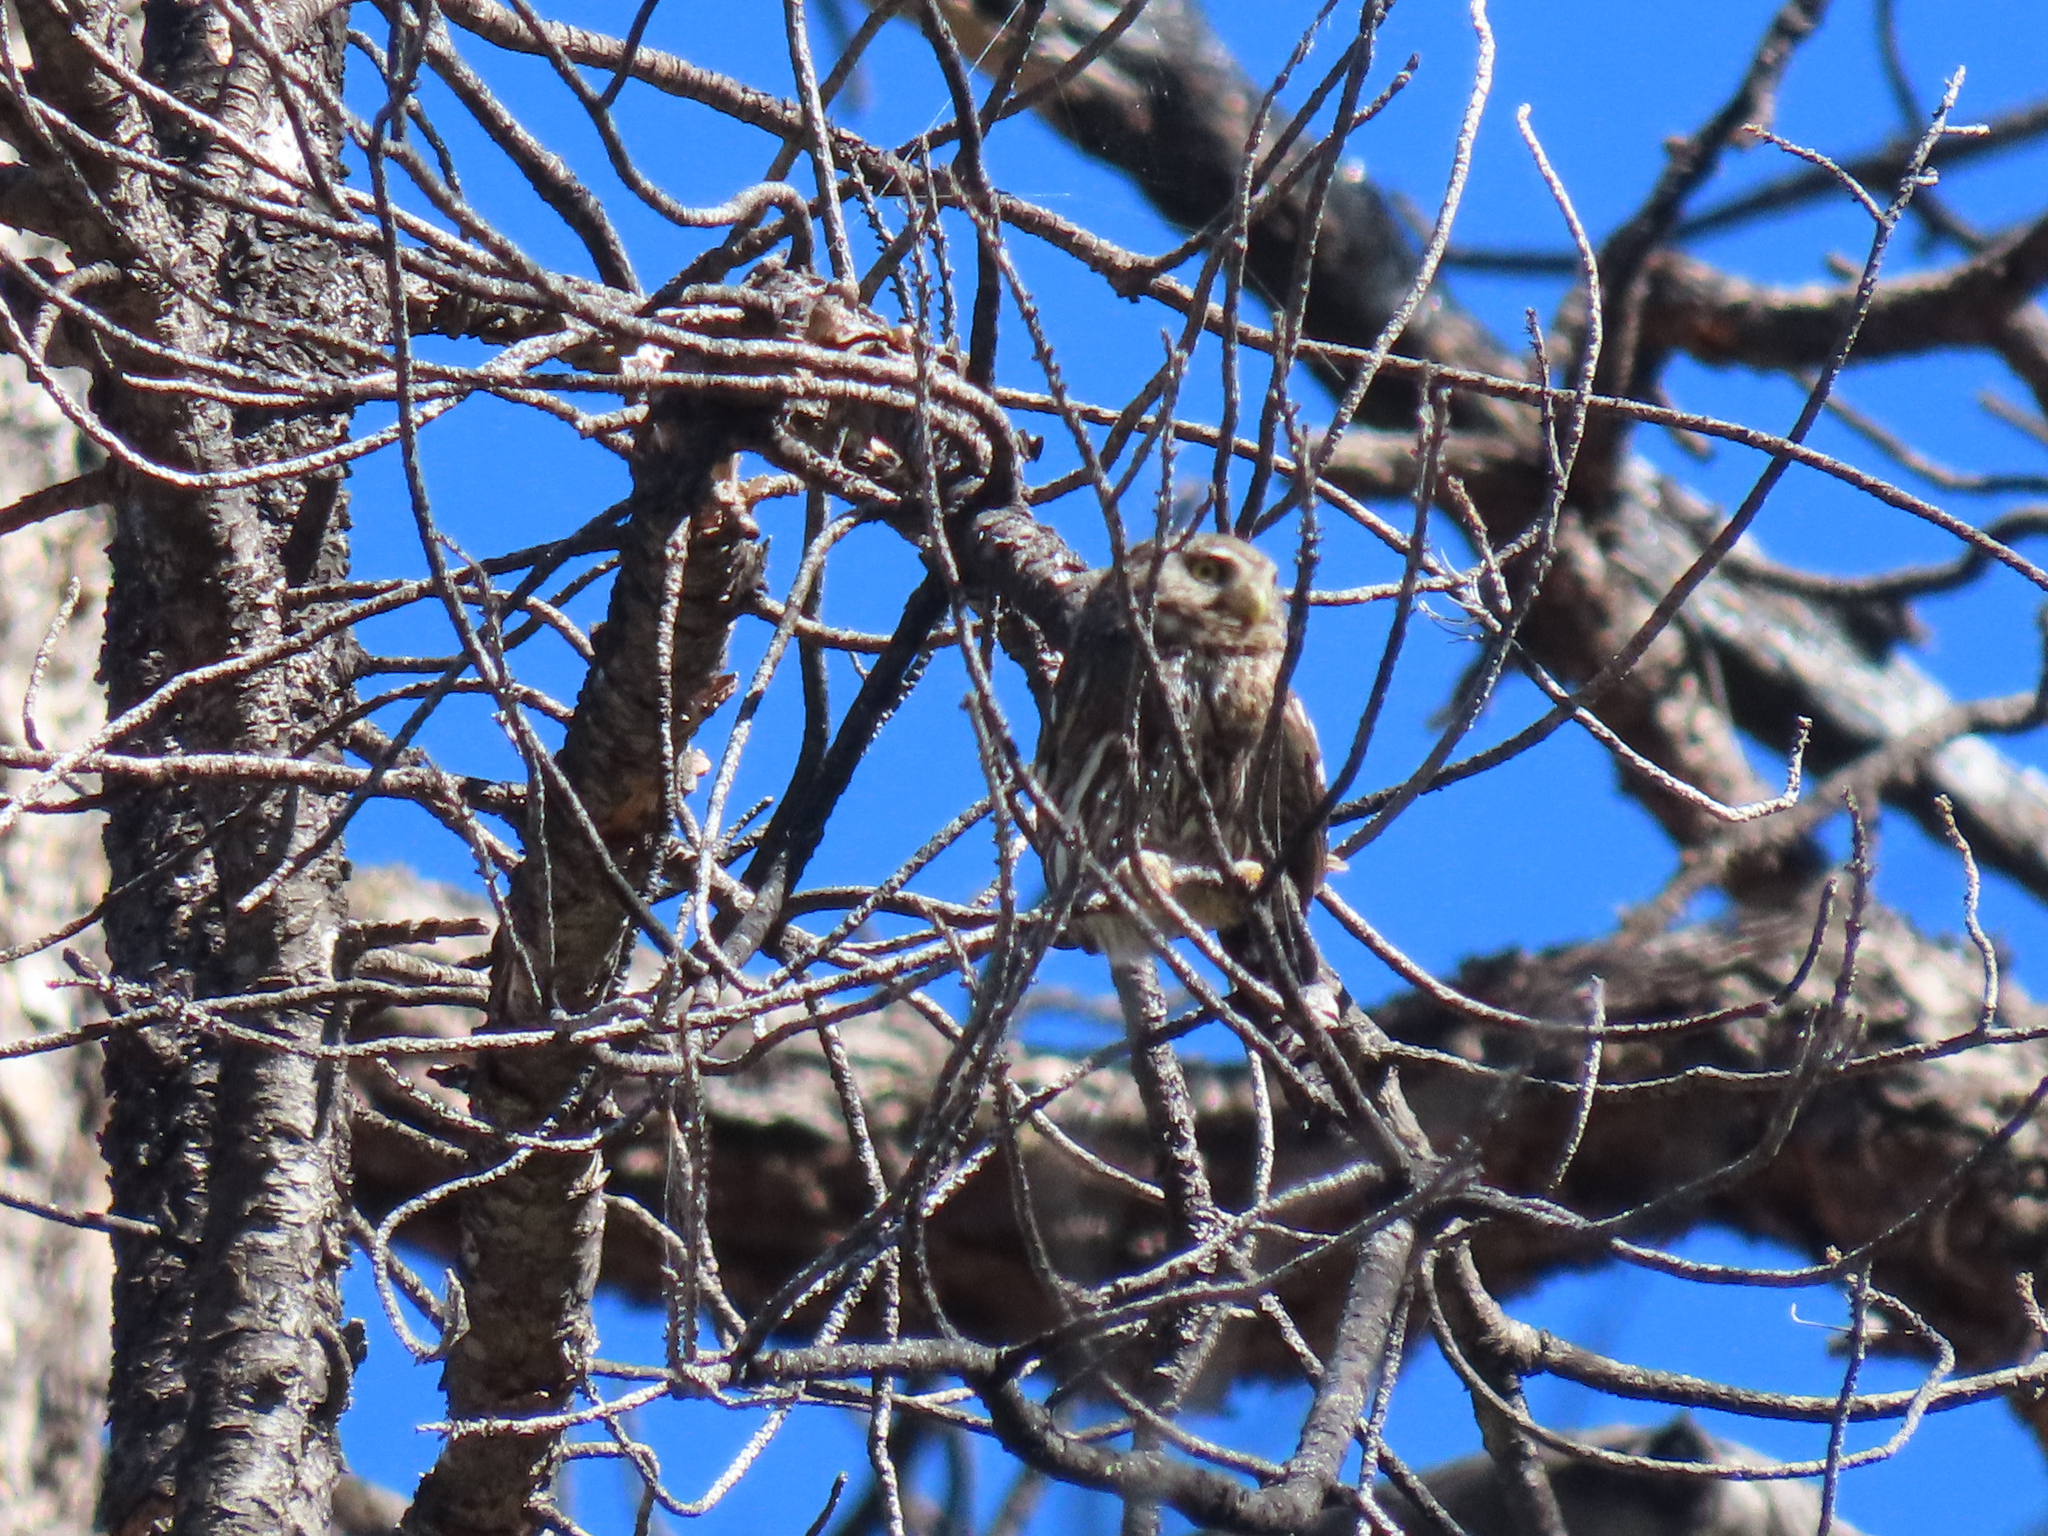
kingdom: Animalia
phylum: Chordata
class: Aves
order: Strigiformes
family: Strigidae
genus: Glaucidium
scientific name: Glaucidium gnoma
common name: Northern pygmy-owl
